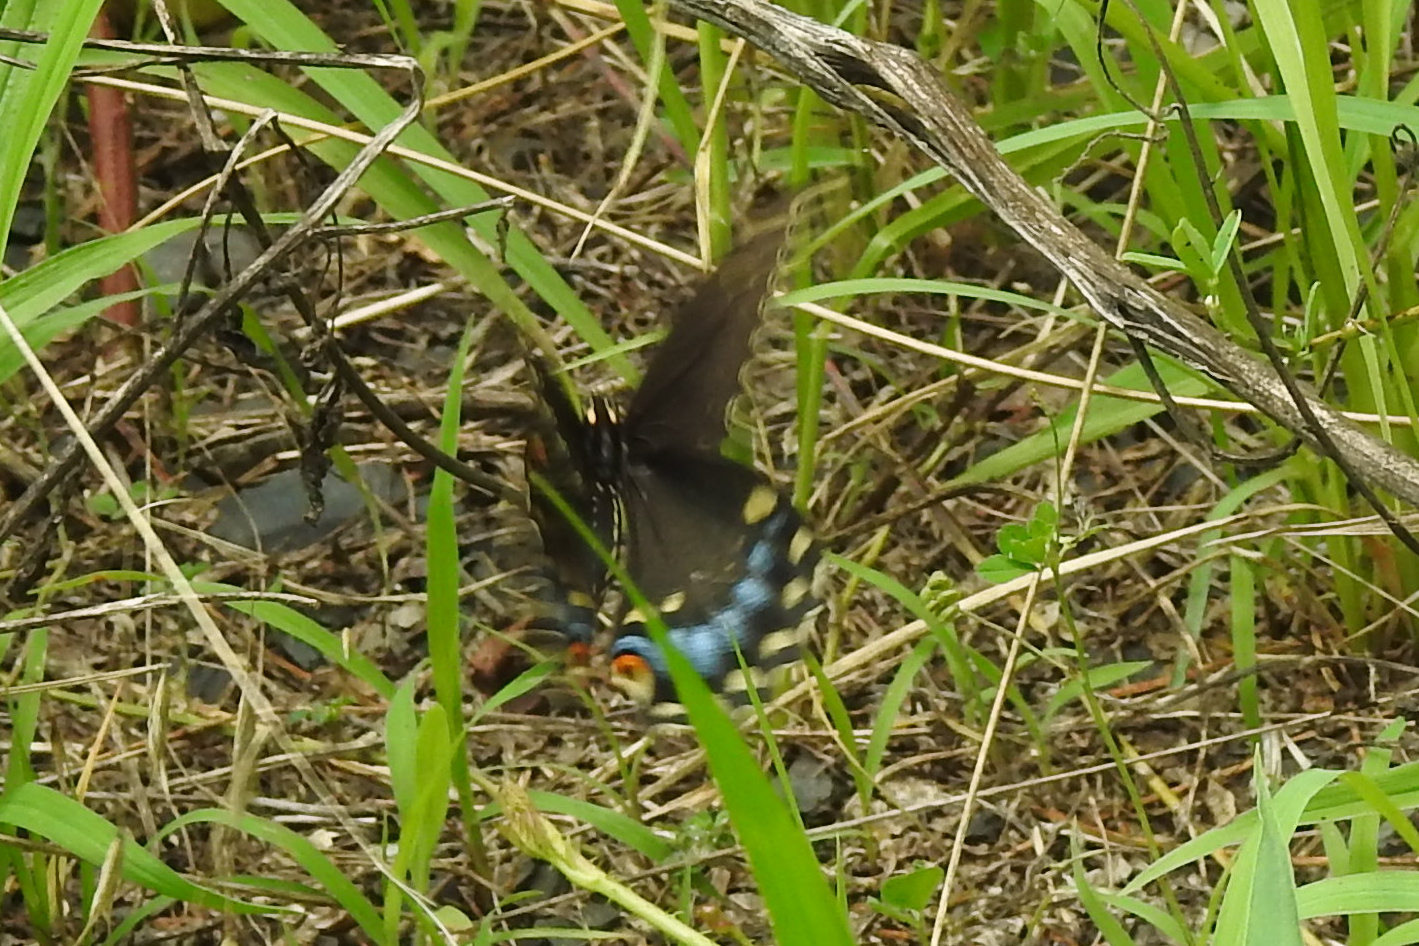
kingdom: Animalia
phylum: Arthropoda
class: Insecta
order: Lepidoptera
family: Papilionidae
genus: Papilio
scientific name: Papilio polyxenes
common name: Black swallowtail
